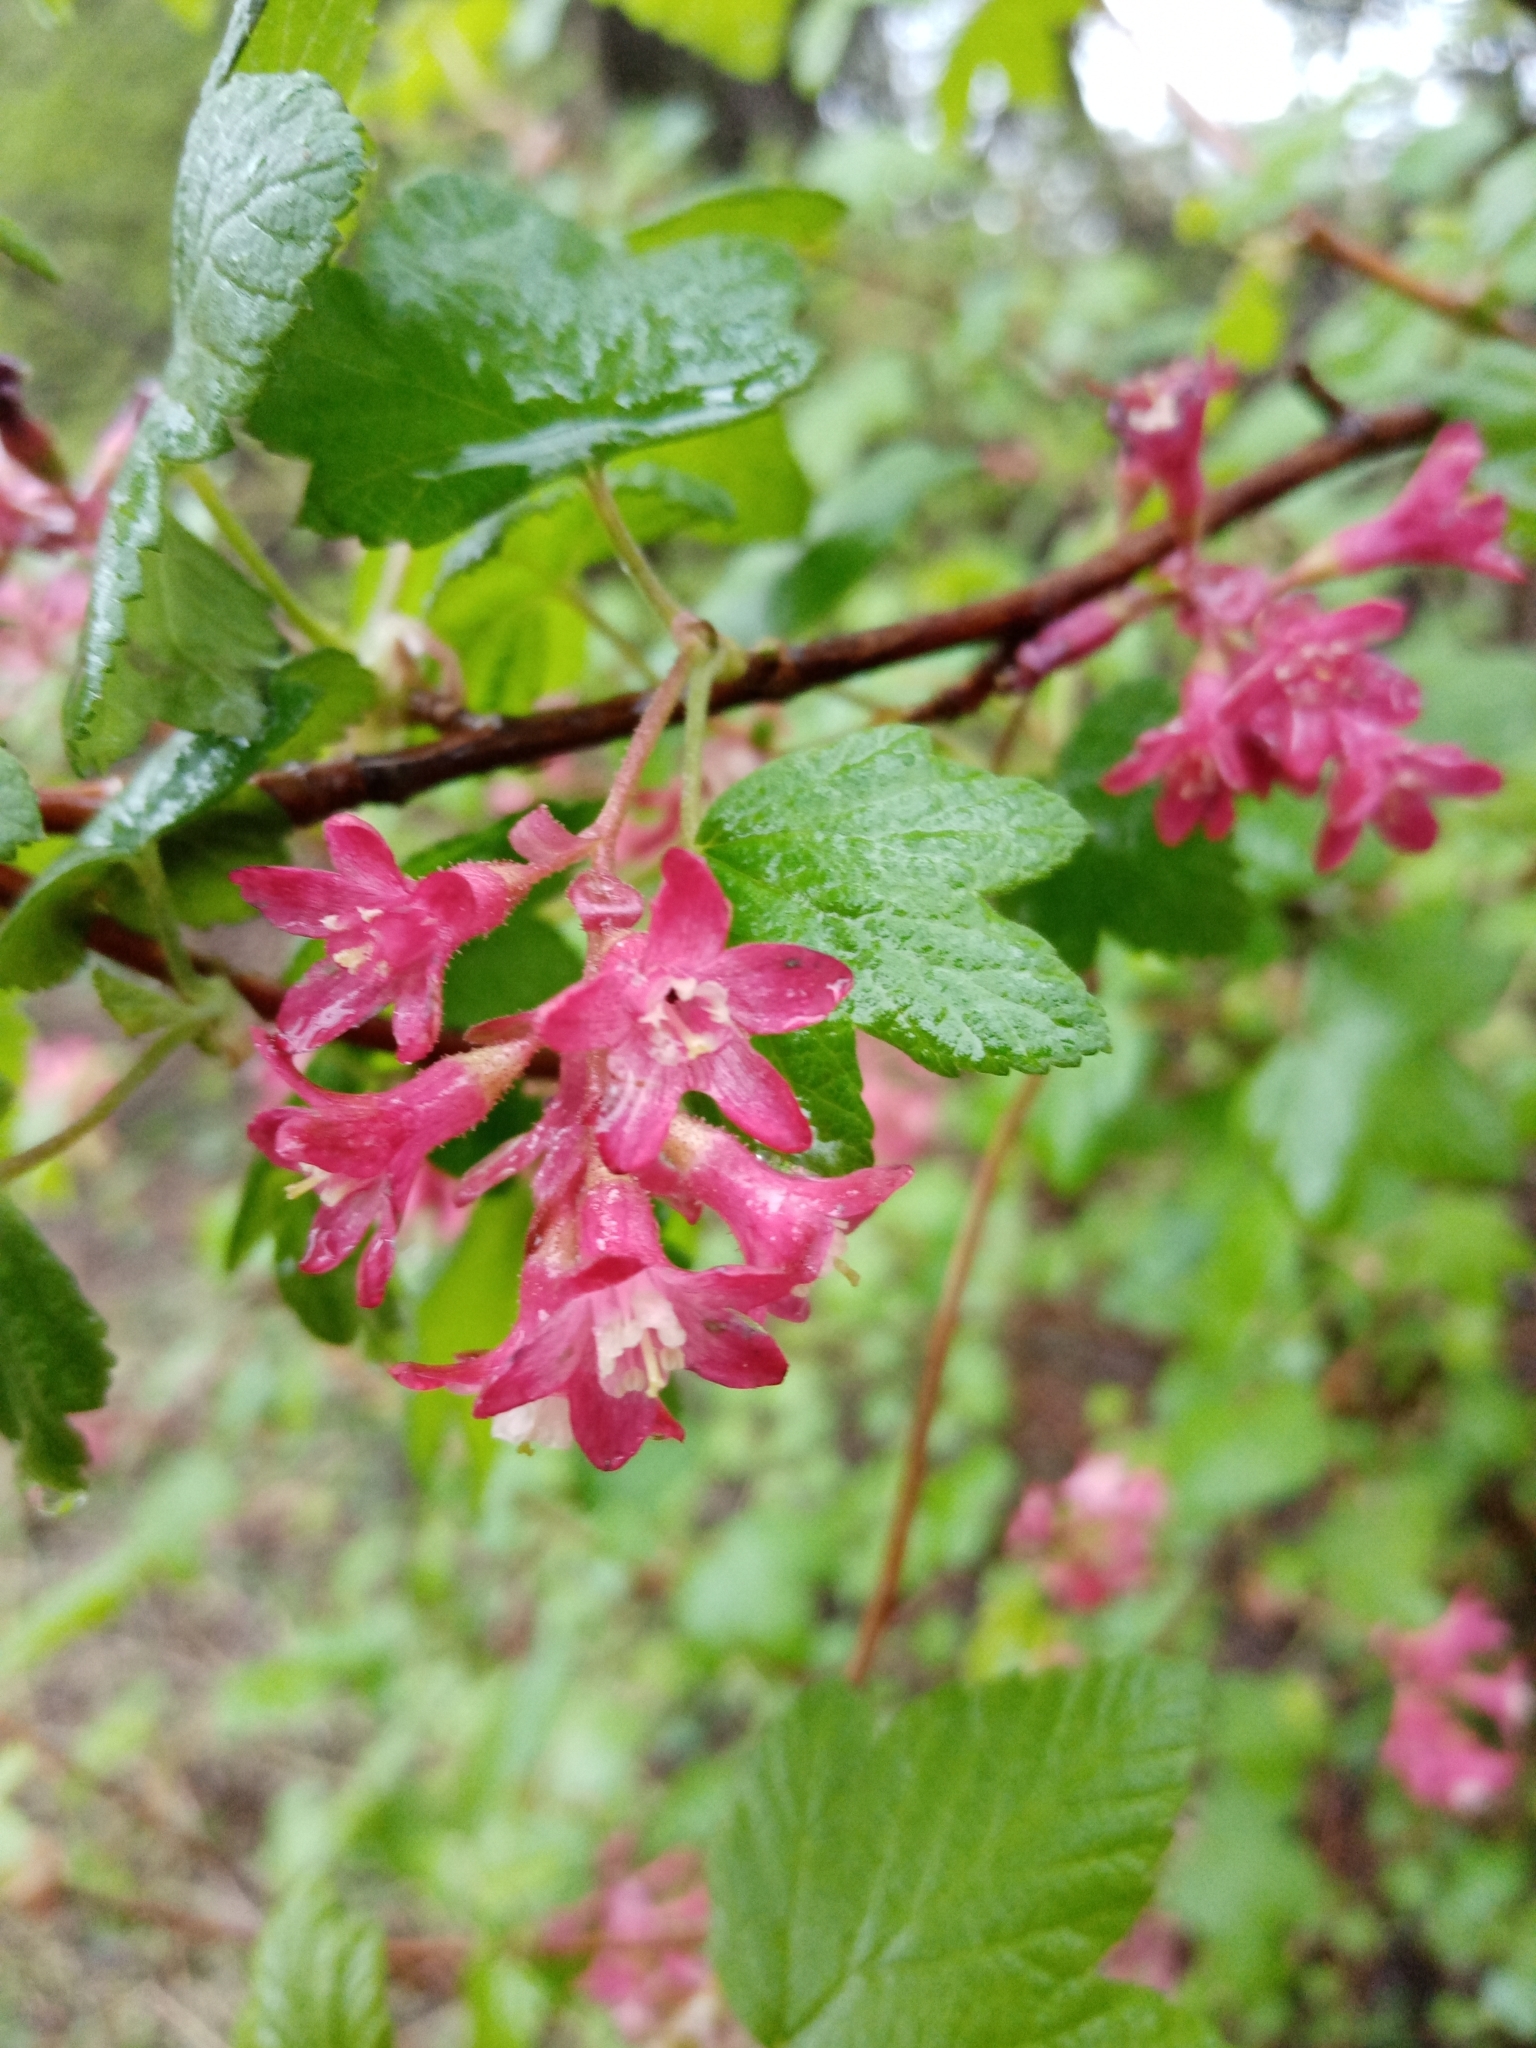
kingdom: Plantae
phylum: Tracheophyta
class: Magnoliopsida
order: Saxifragales
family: Grossulariaceae
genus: Ribes
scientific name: Ribes sanguineum
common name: Flowering currant
